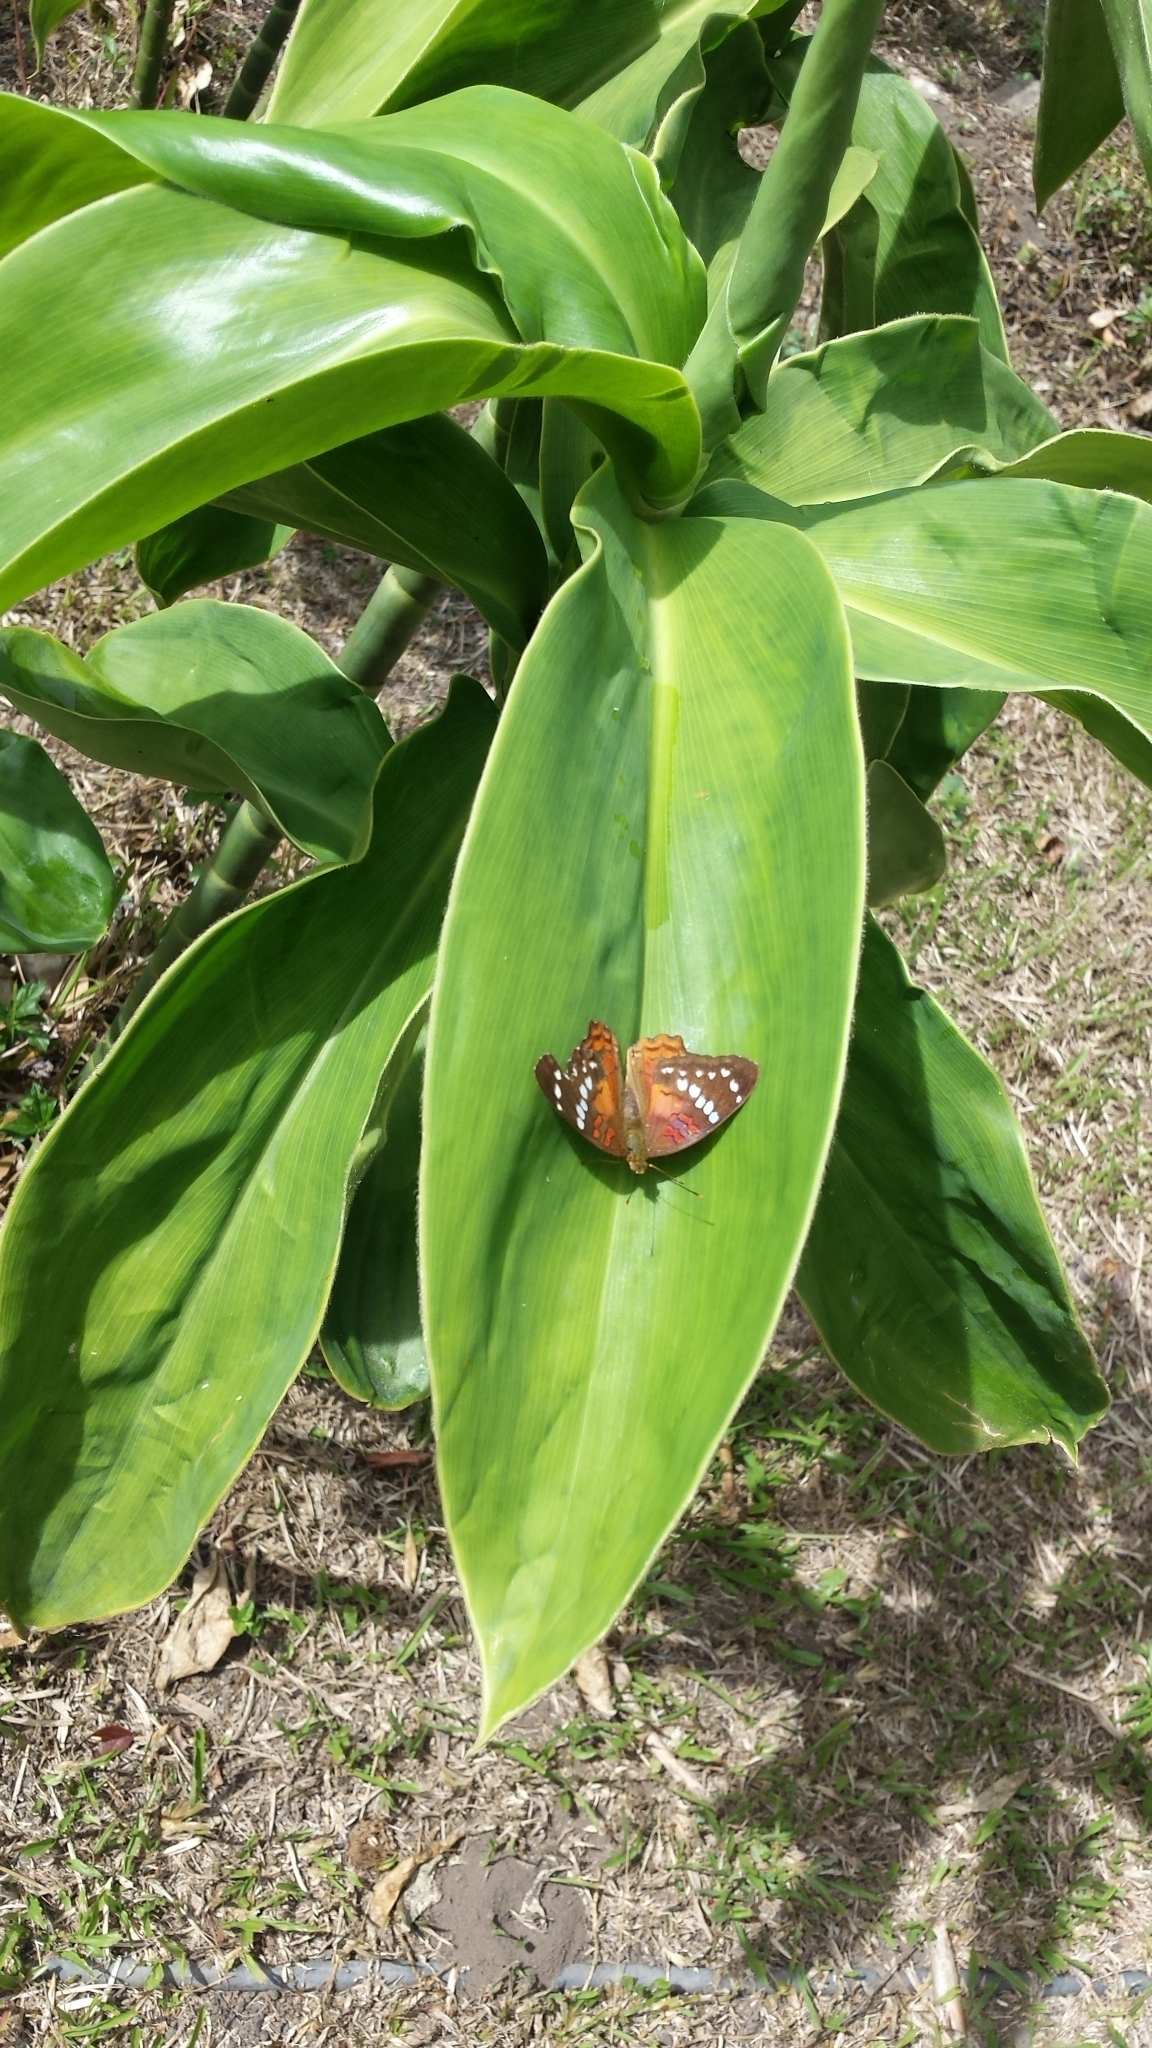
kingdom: Animalia
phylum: Arthropoda
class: Insecta
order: Lepidoptera
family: Nymphalidae
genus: Anartia
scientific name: Anartia amathea
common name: Red peacock
